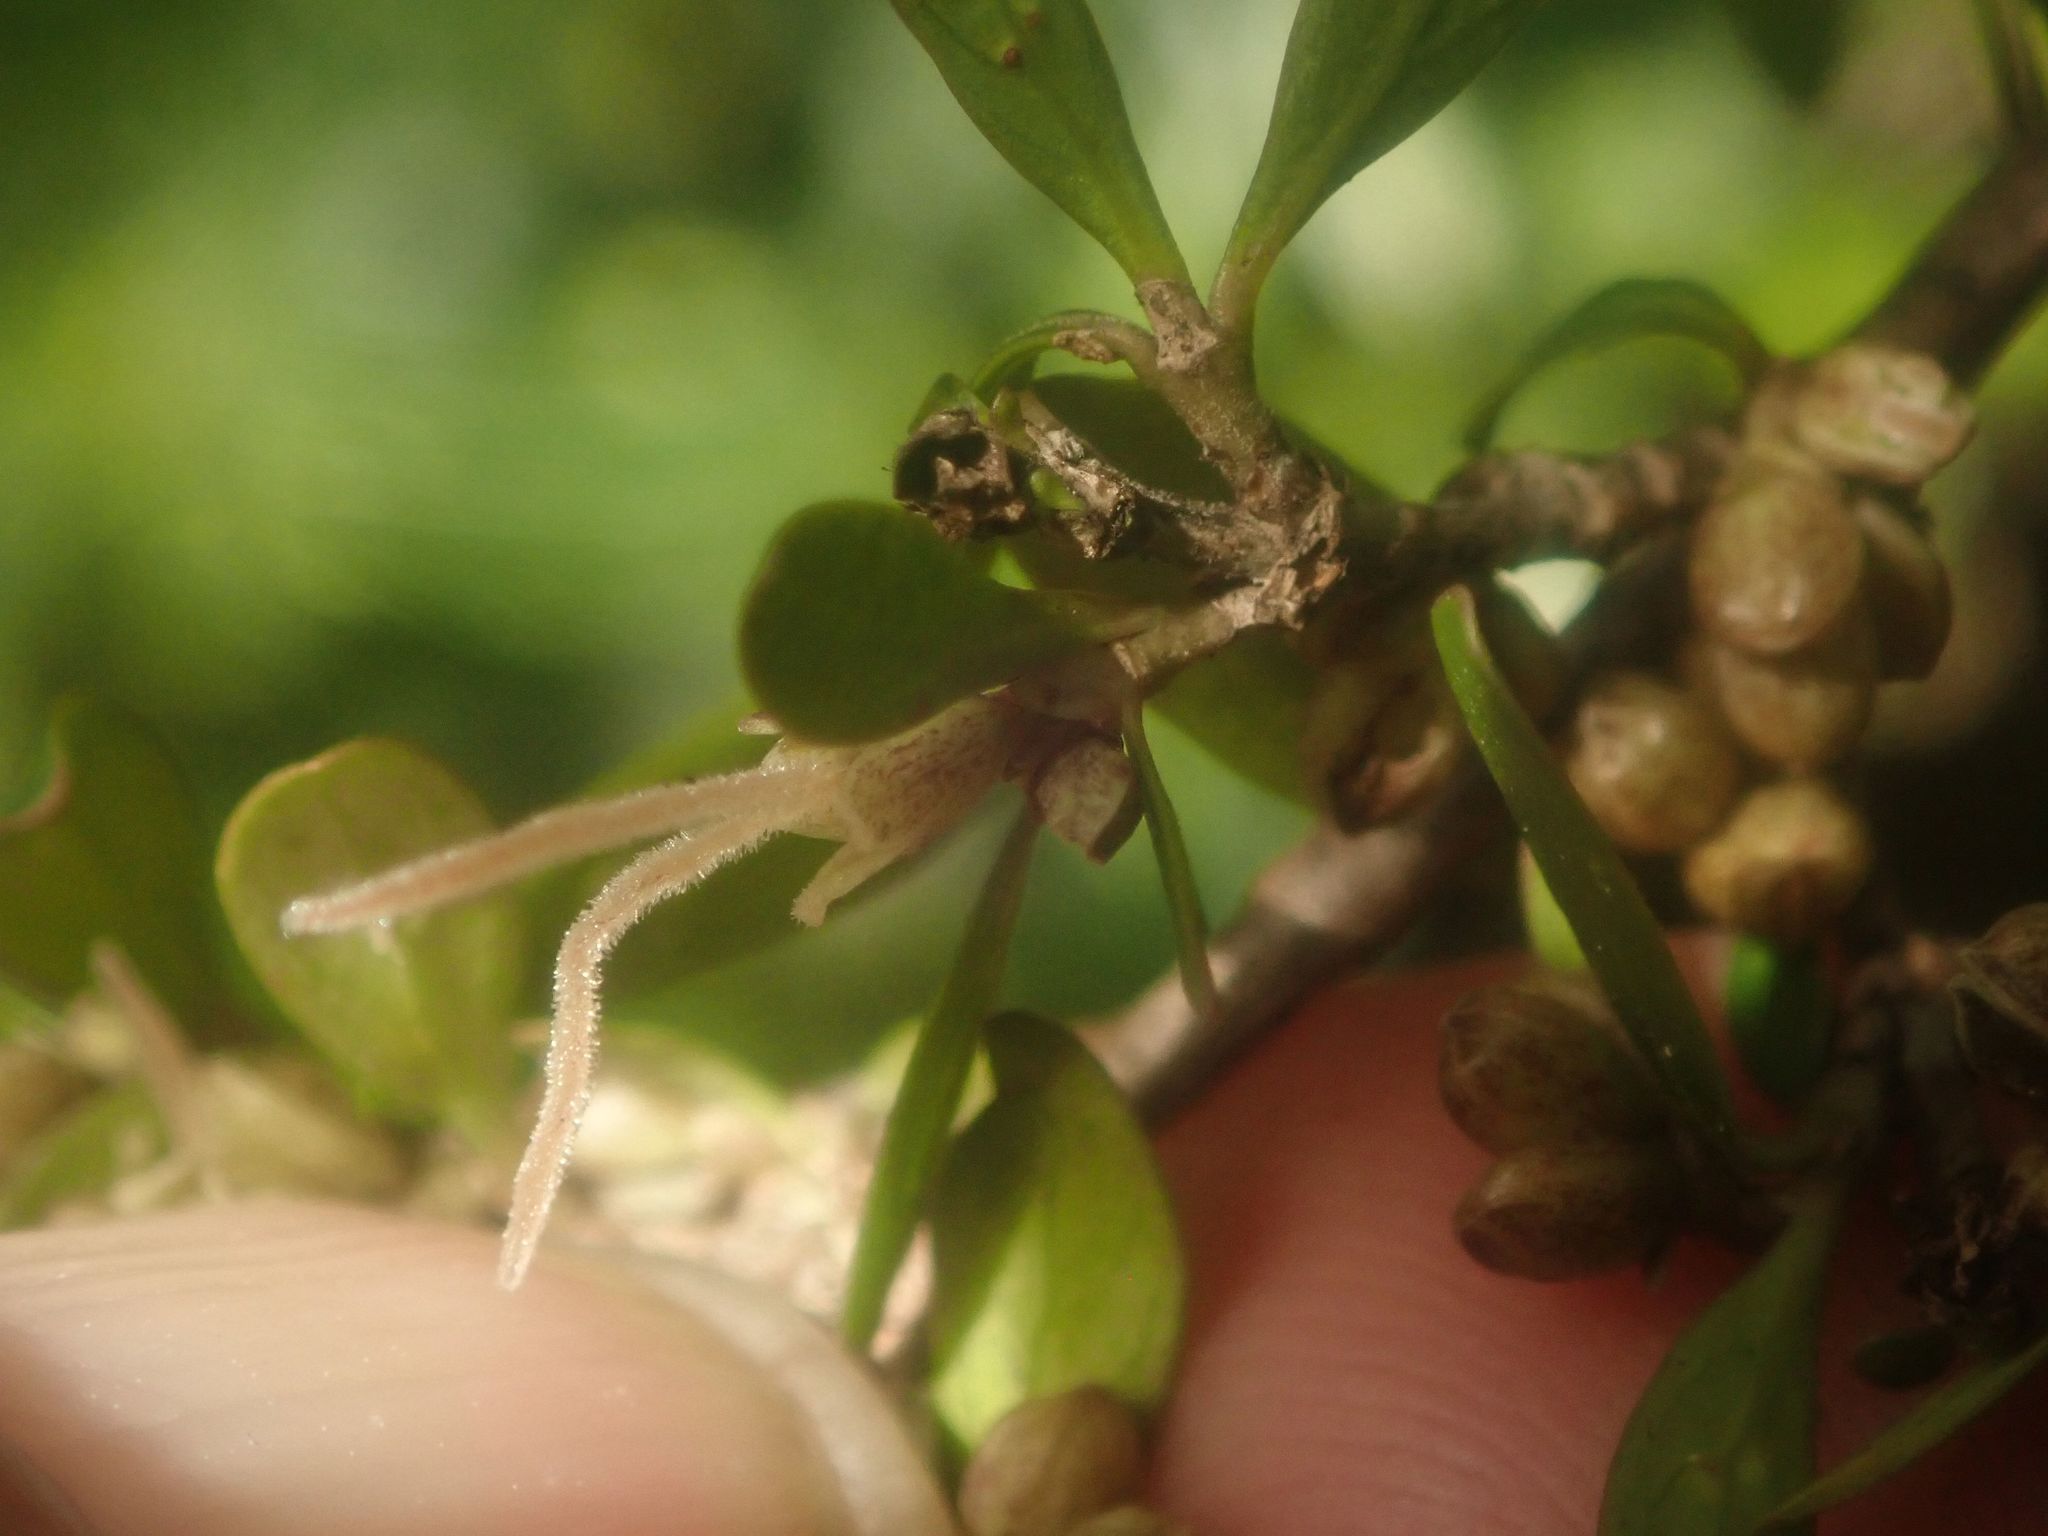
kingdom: Plantae
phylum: Tracheophyta
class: Magnoliopsida
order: Gentianales
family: Rubiaceae
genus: Coprosma
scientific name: Coprosma propinqua
